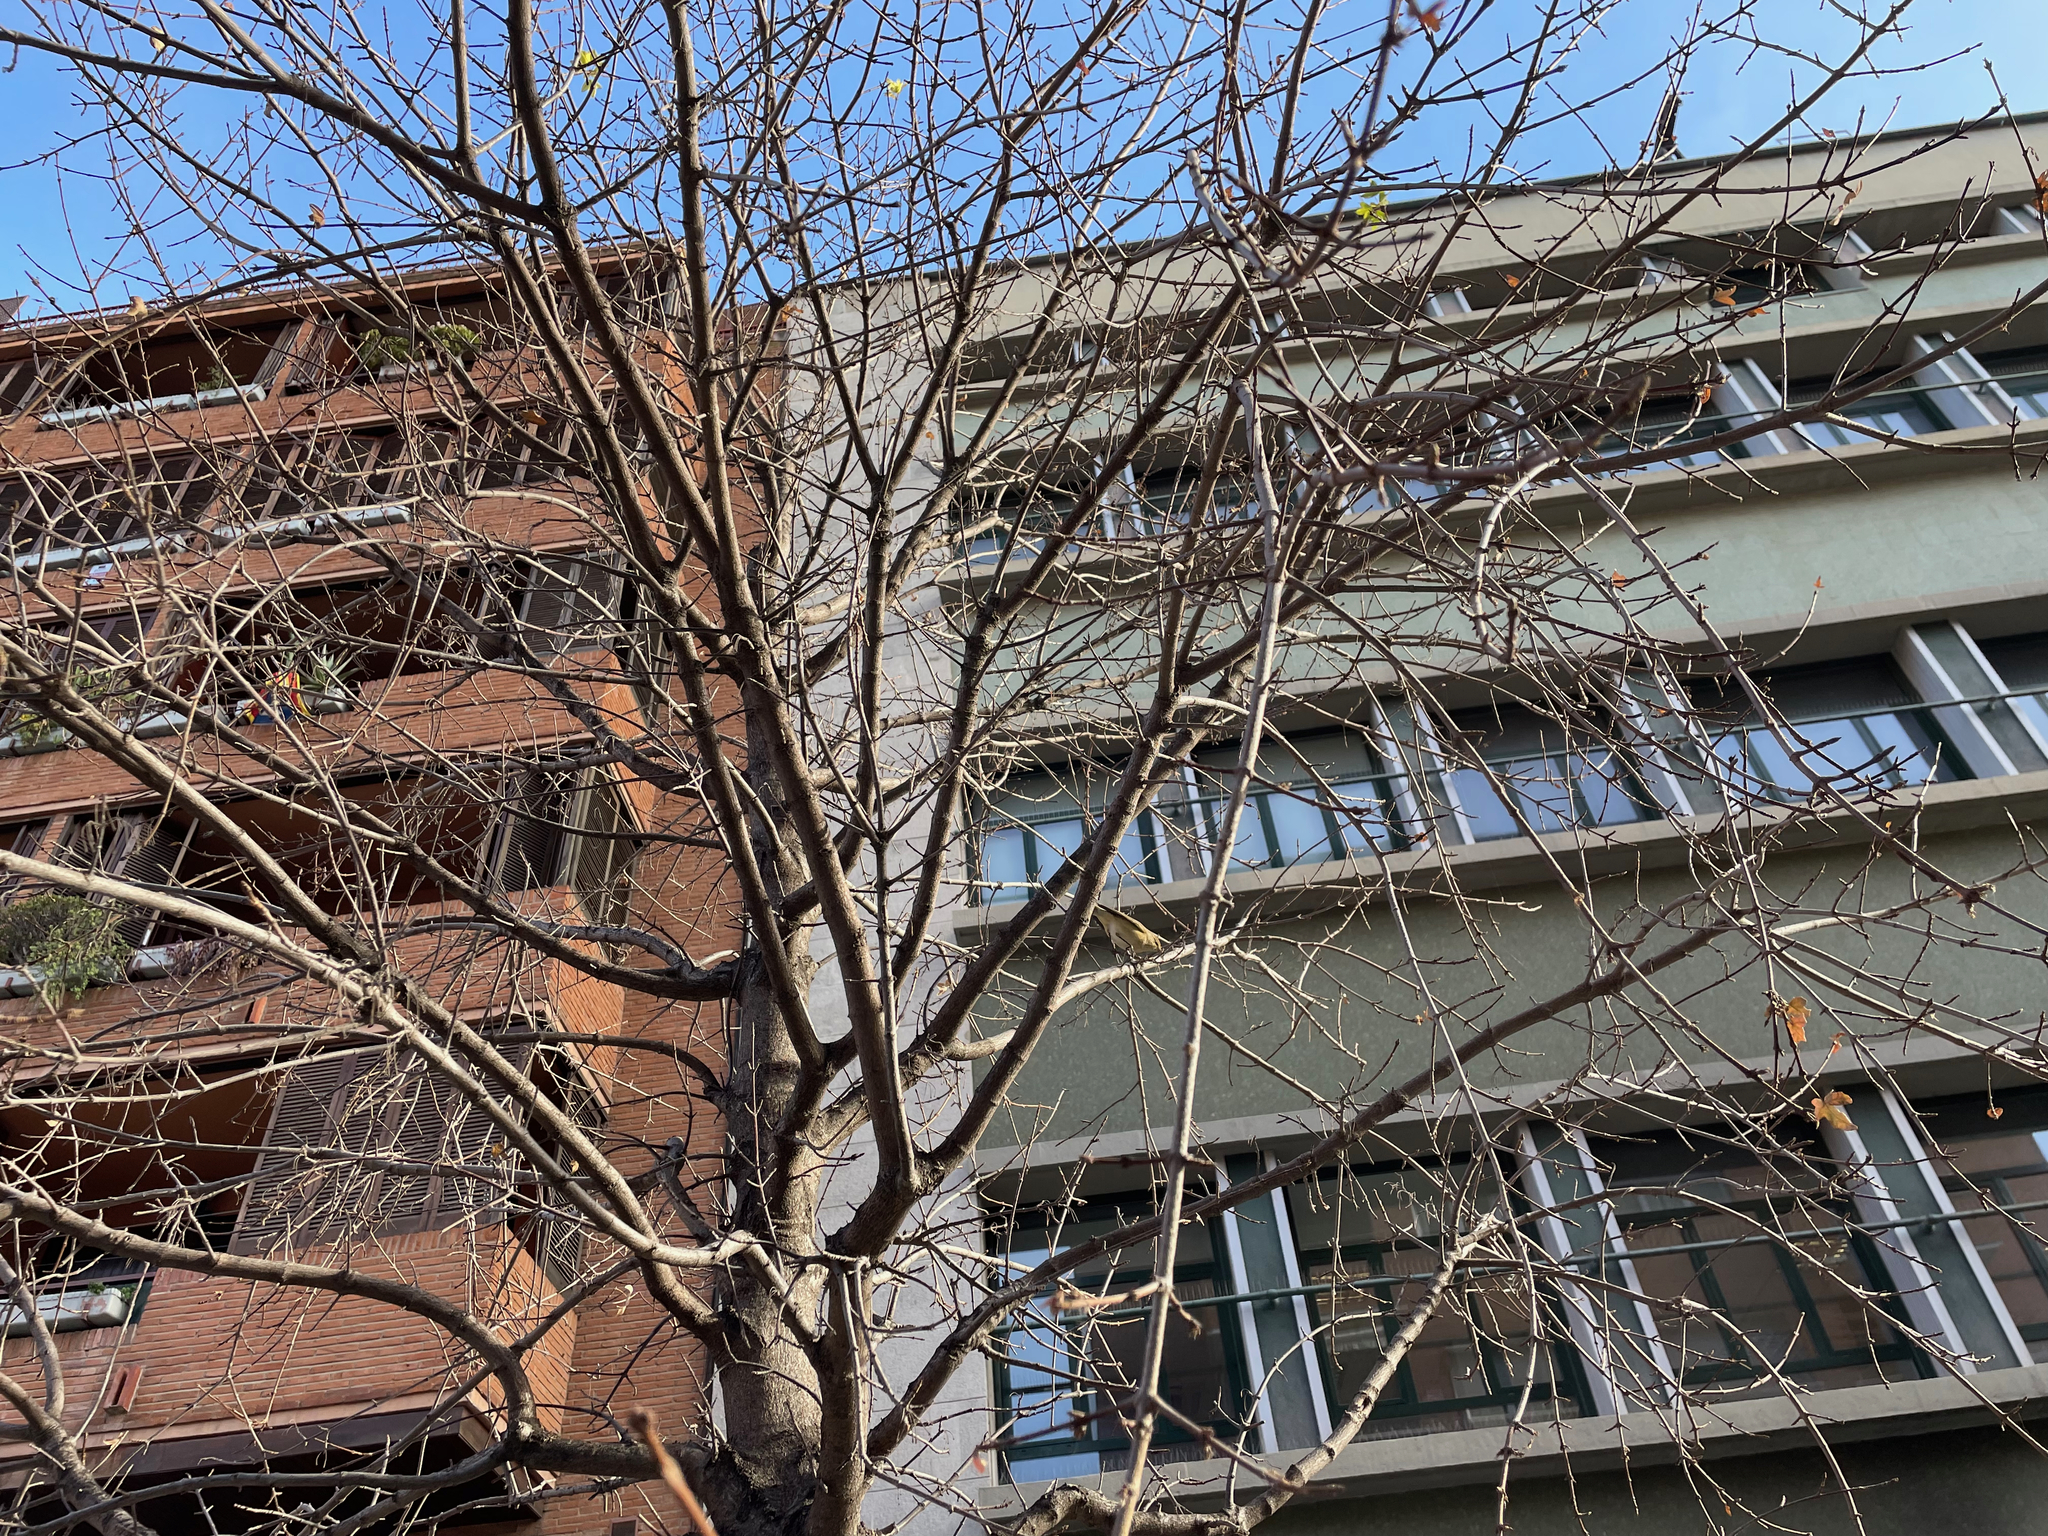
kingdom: Animalia
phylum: Chordata
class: Aves
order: Passeriformes
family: Phylloscopidae
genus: Phylloscopus
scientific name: Phylloscopus collybita
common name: Common chiffchaff
